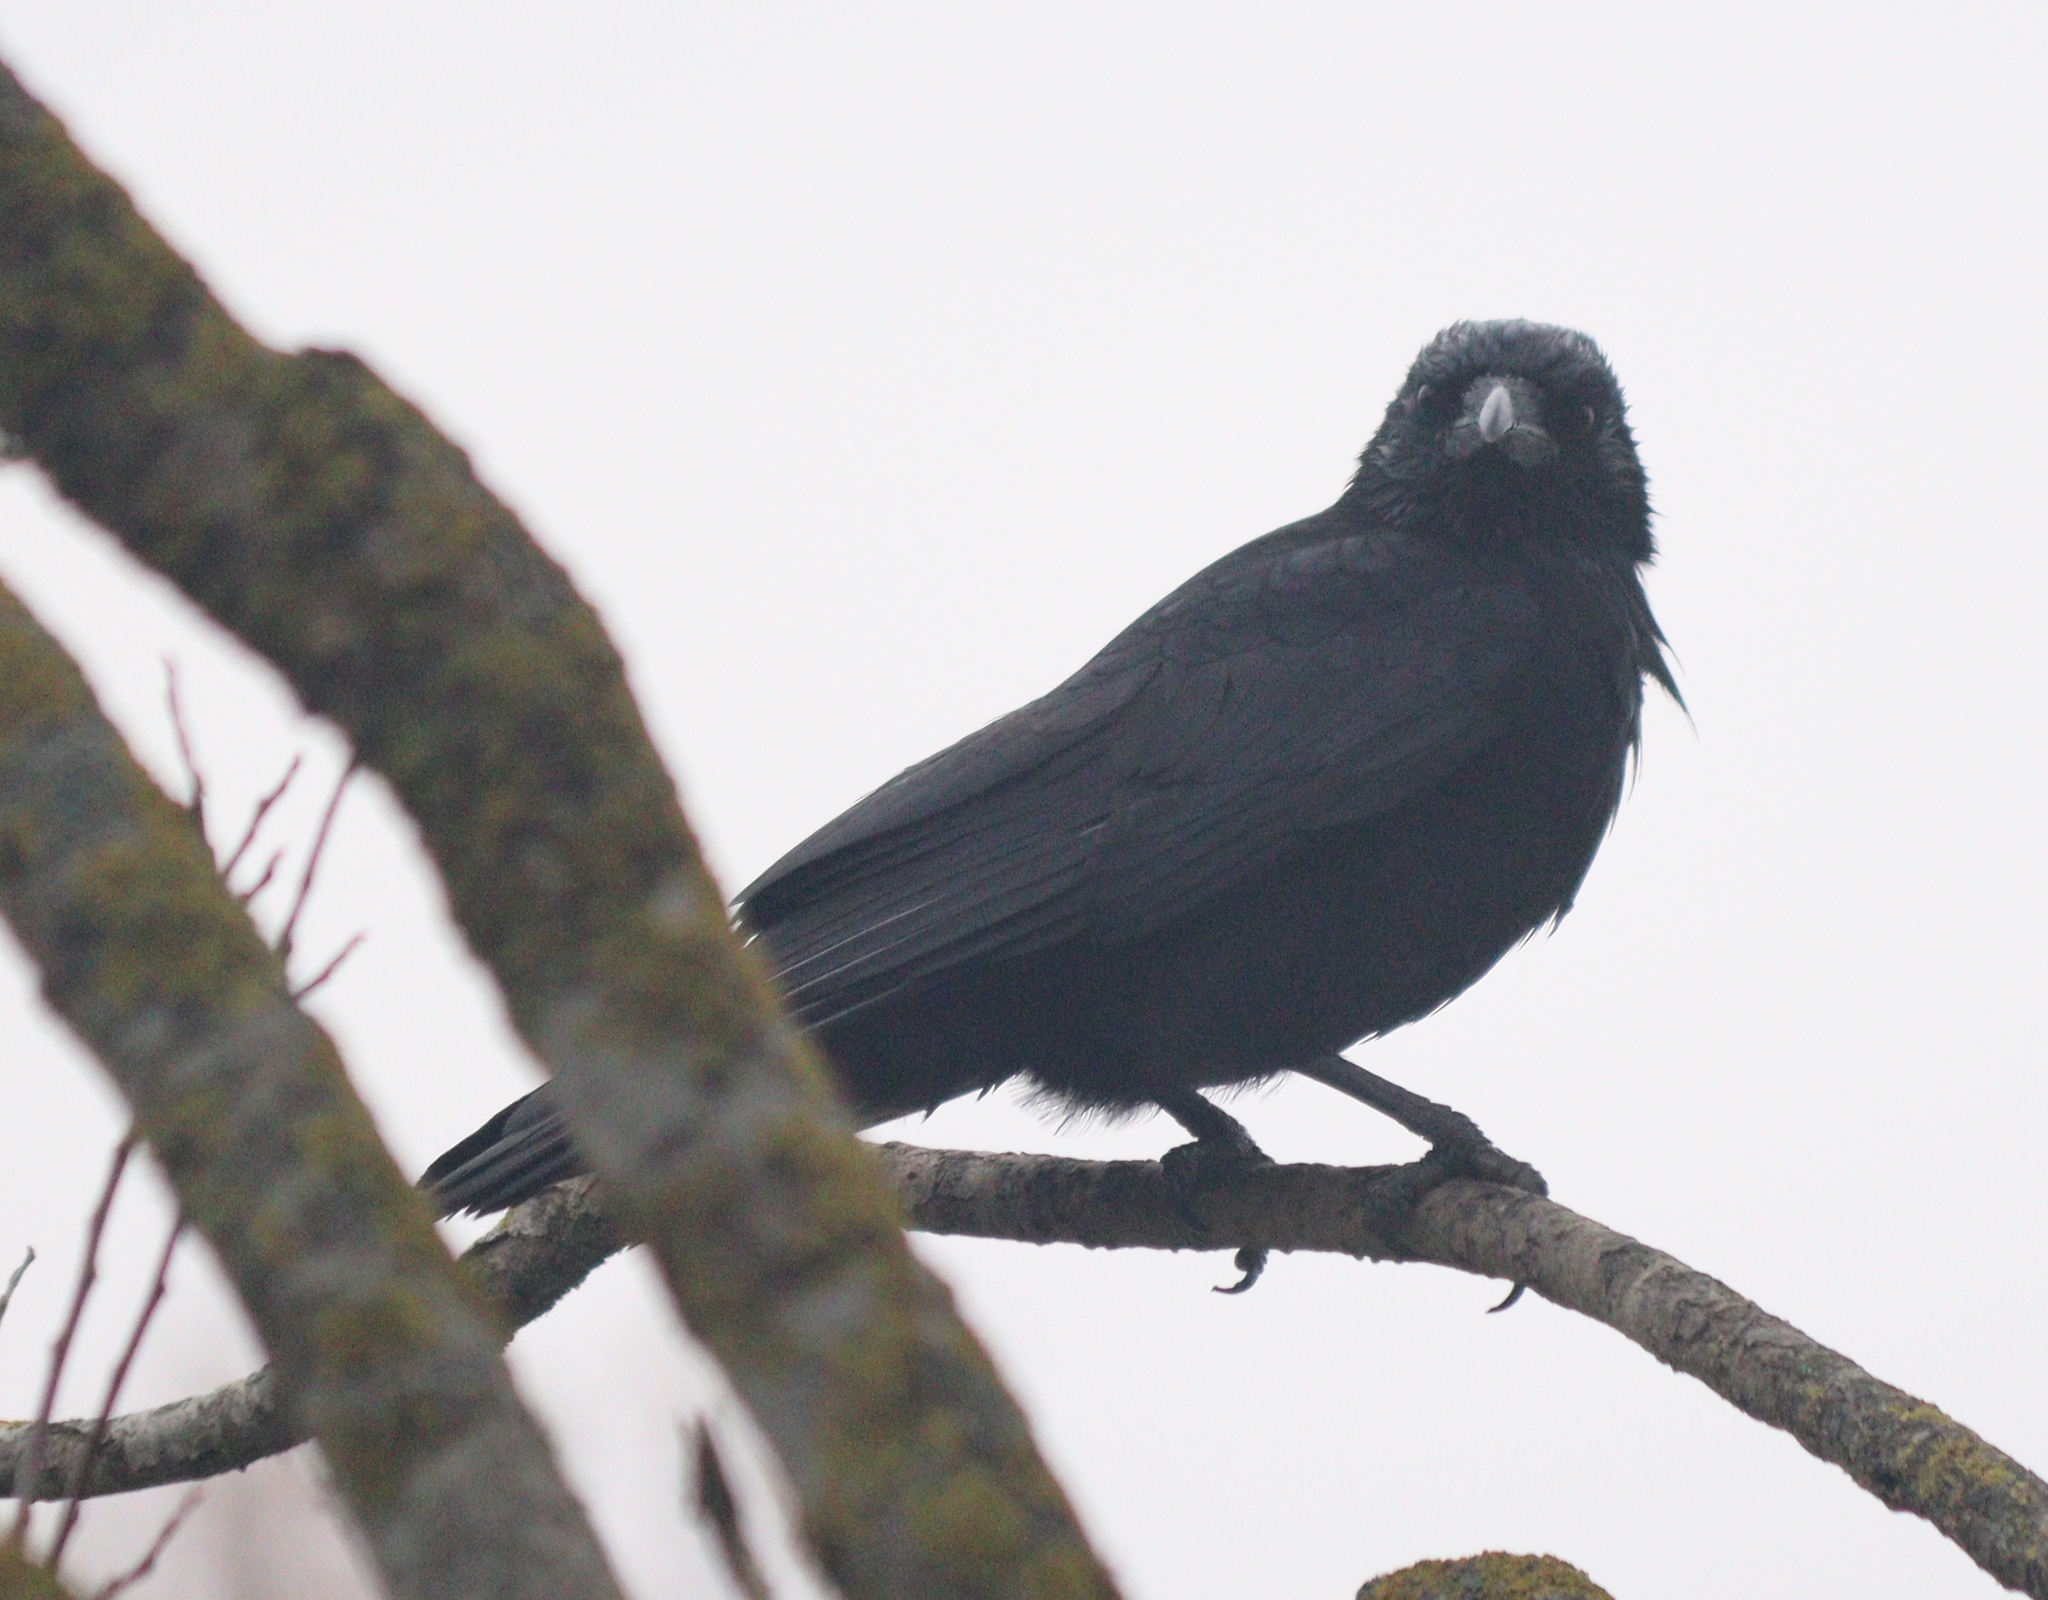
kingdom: Animalia
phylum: Chordata
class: Aves
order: Passeriformes
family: Corvidae
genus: Corvus
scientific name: Corvus corone
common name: Carrion crow
